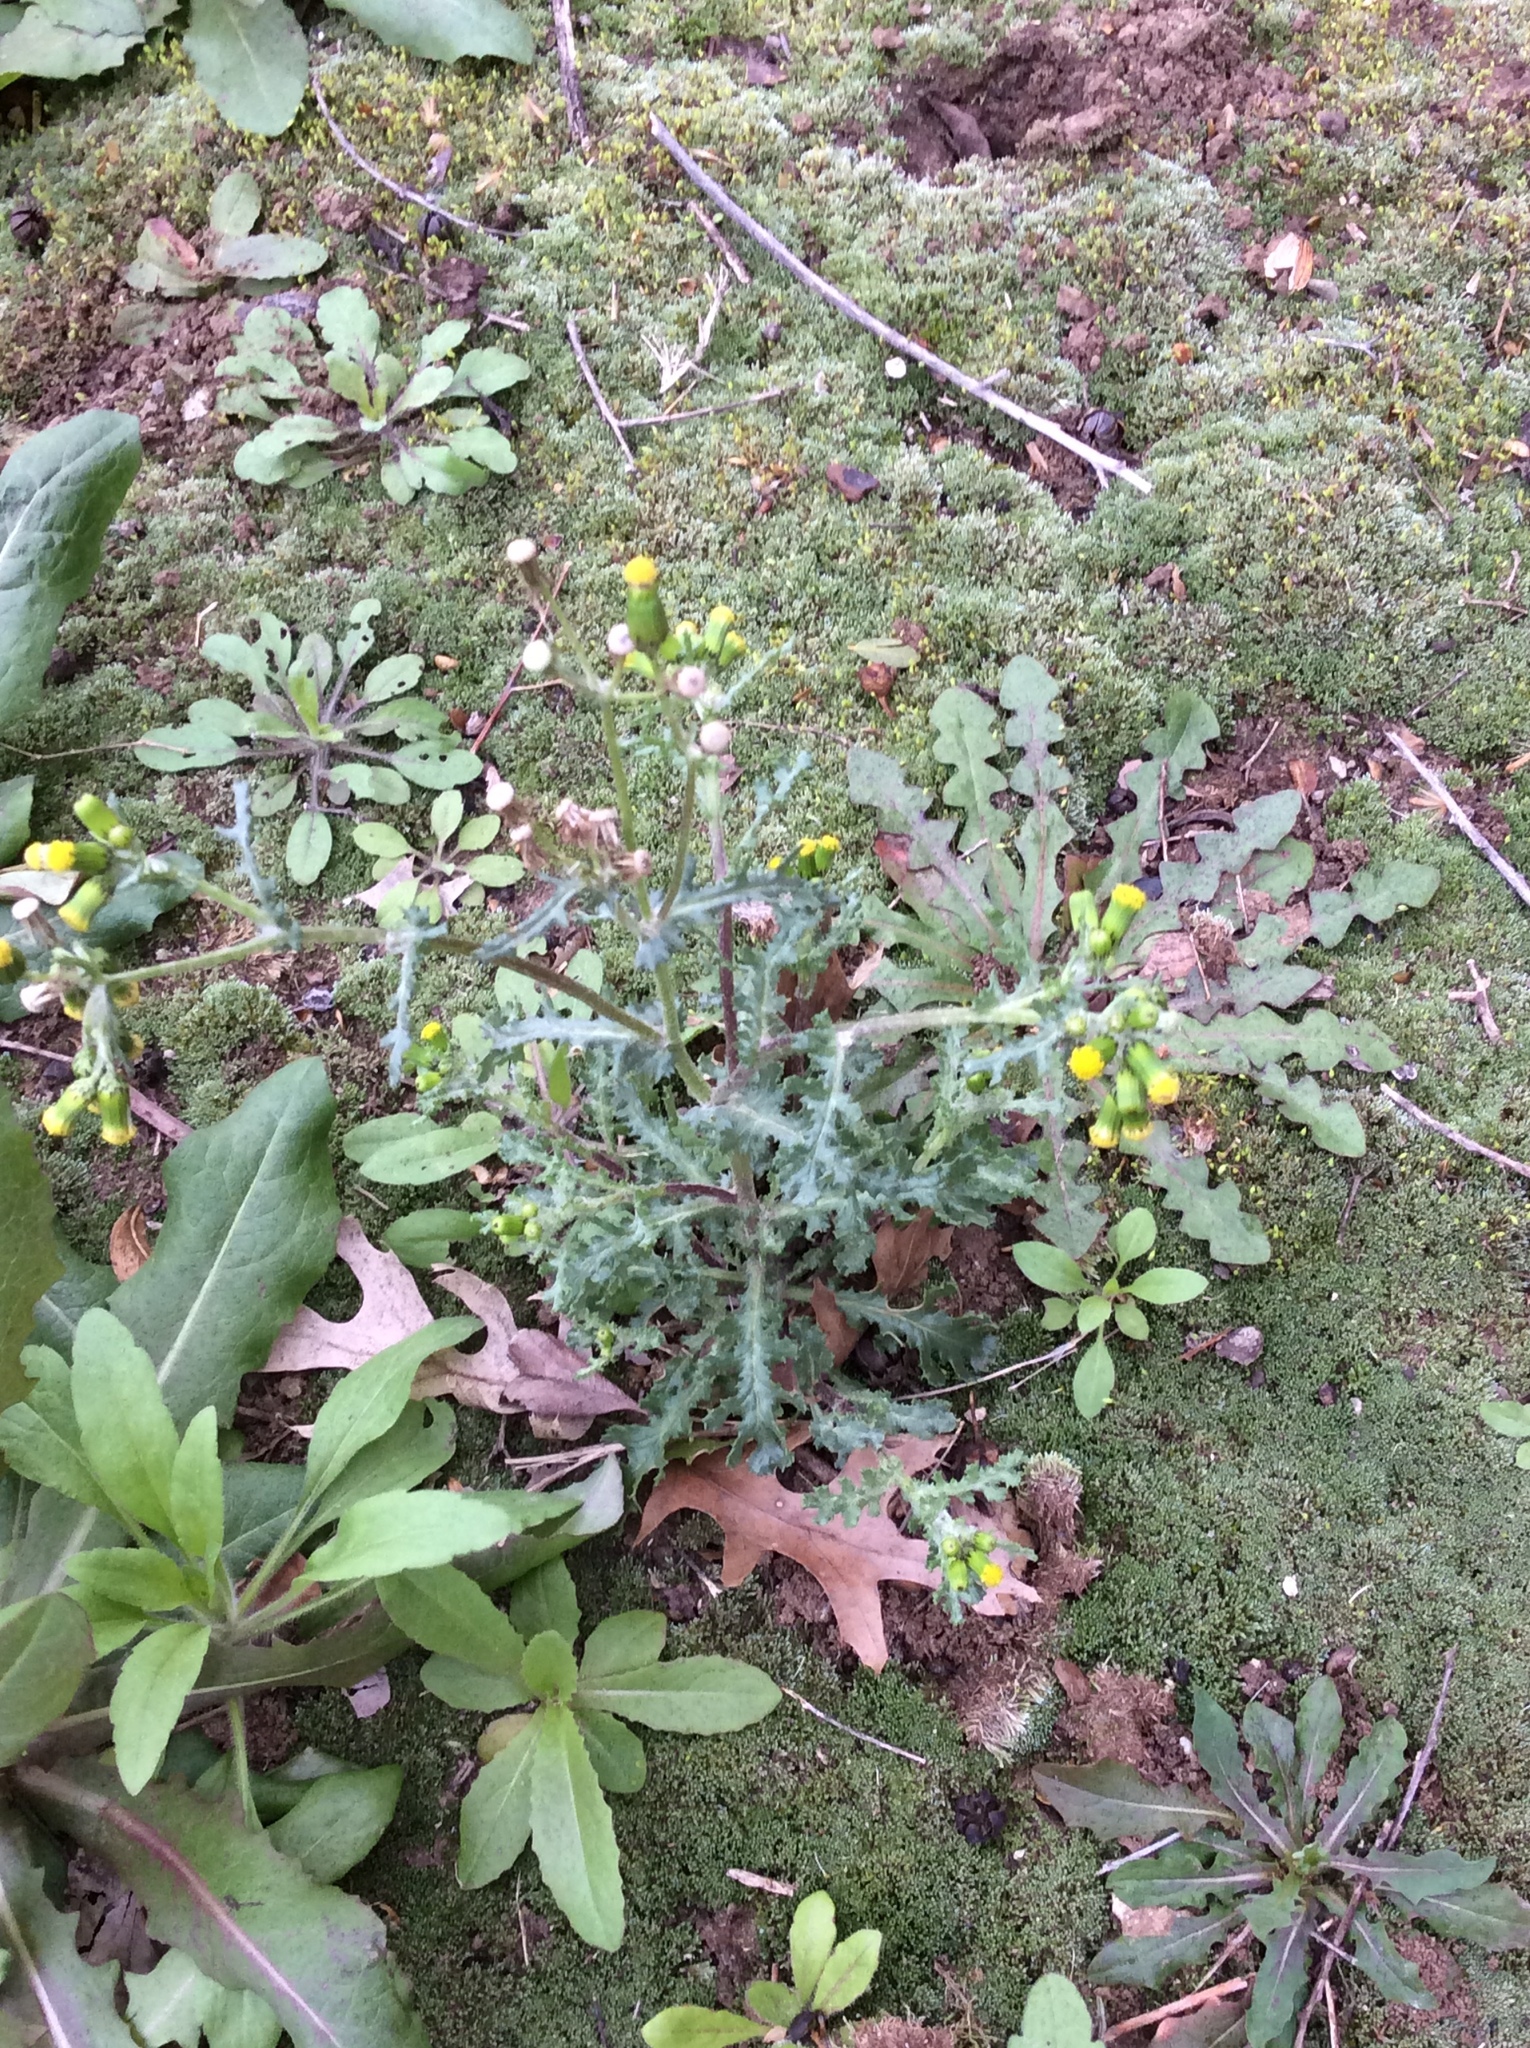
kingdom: Plantae
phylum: Tracheophyta
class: Magnoliopsida
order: Asterales
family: Asteraceae
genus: Senecio
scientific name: Senecio vulgaris
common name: Old-man-in-the-spring
